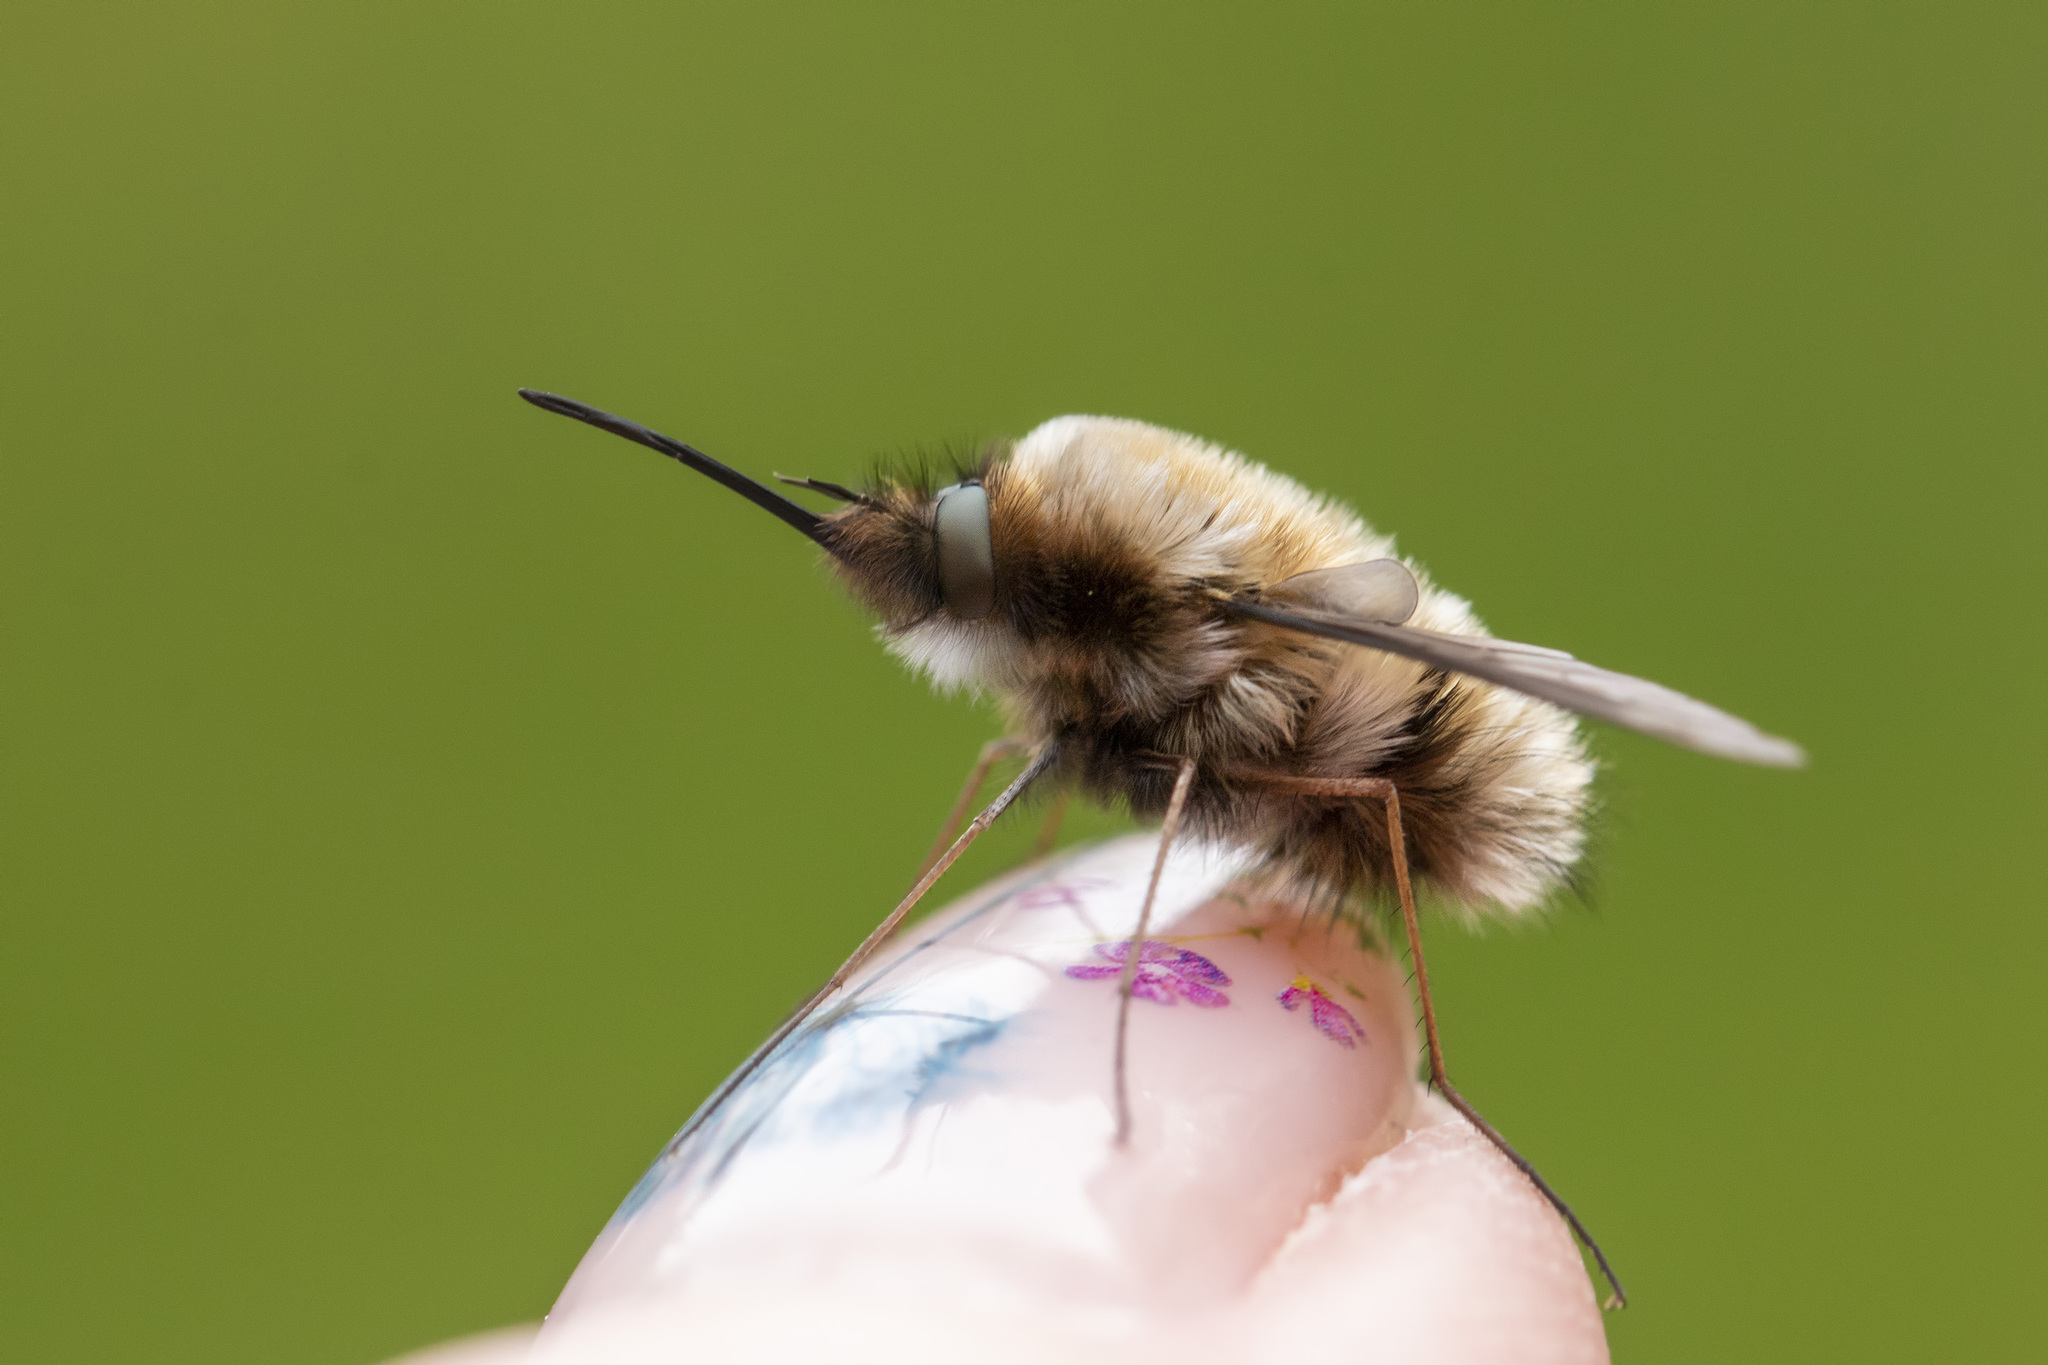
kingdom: Animalia
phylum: Arthropoda
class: Insecta
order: Diptera
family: Bombyliidae
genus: Bombylius
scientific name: Bombylius major
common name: Bee fly
